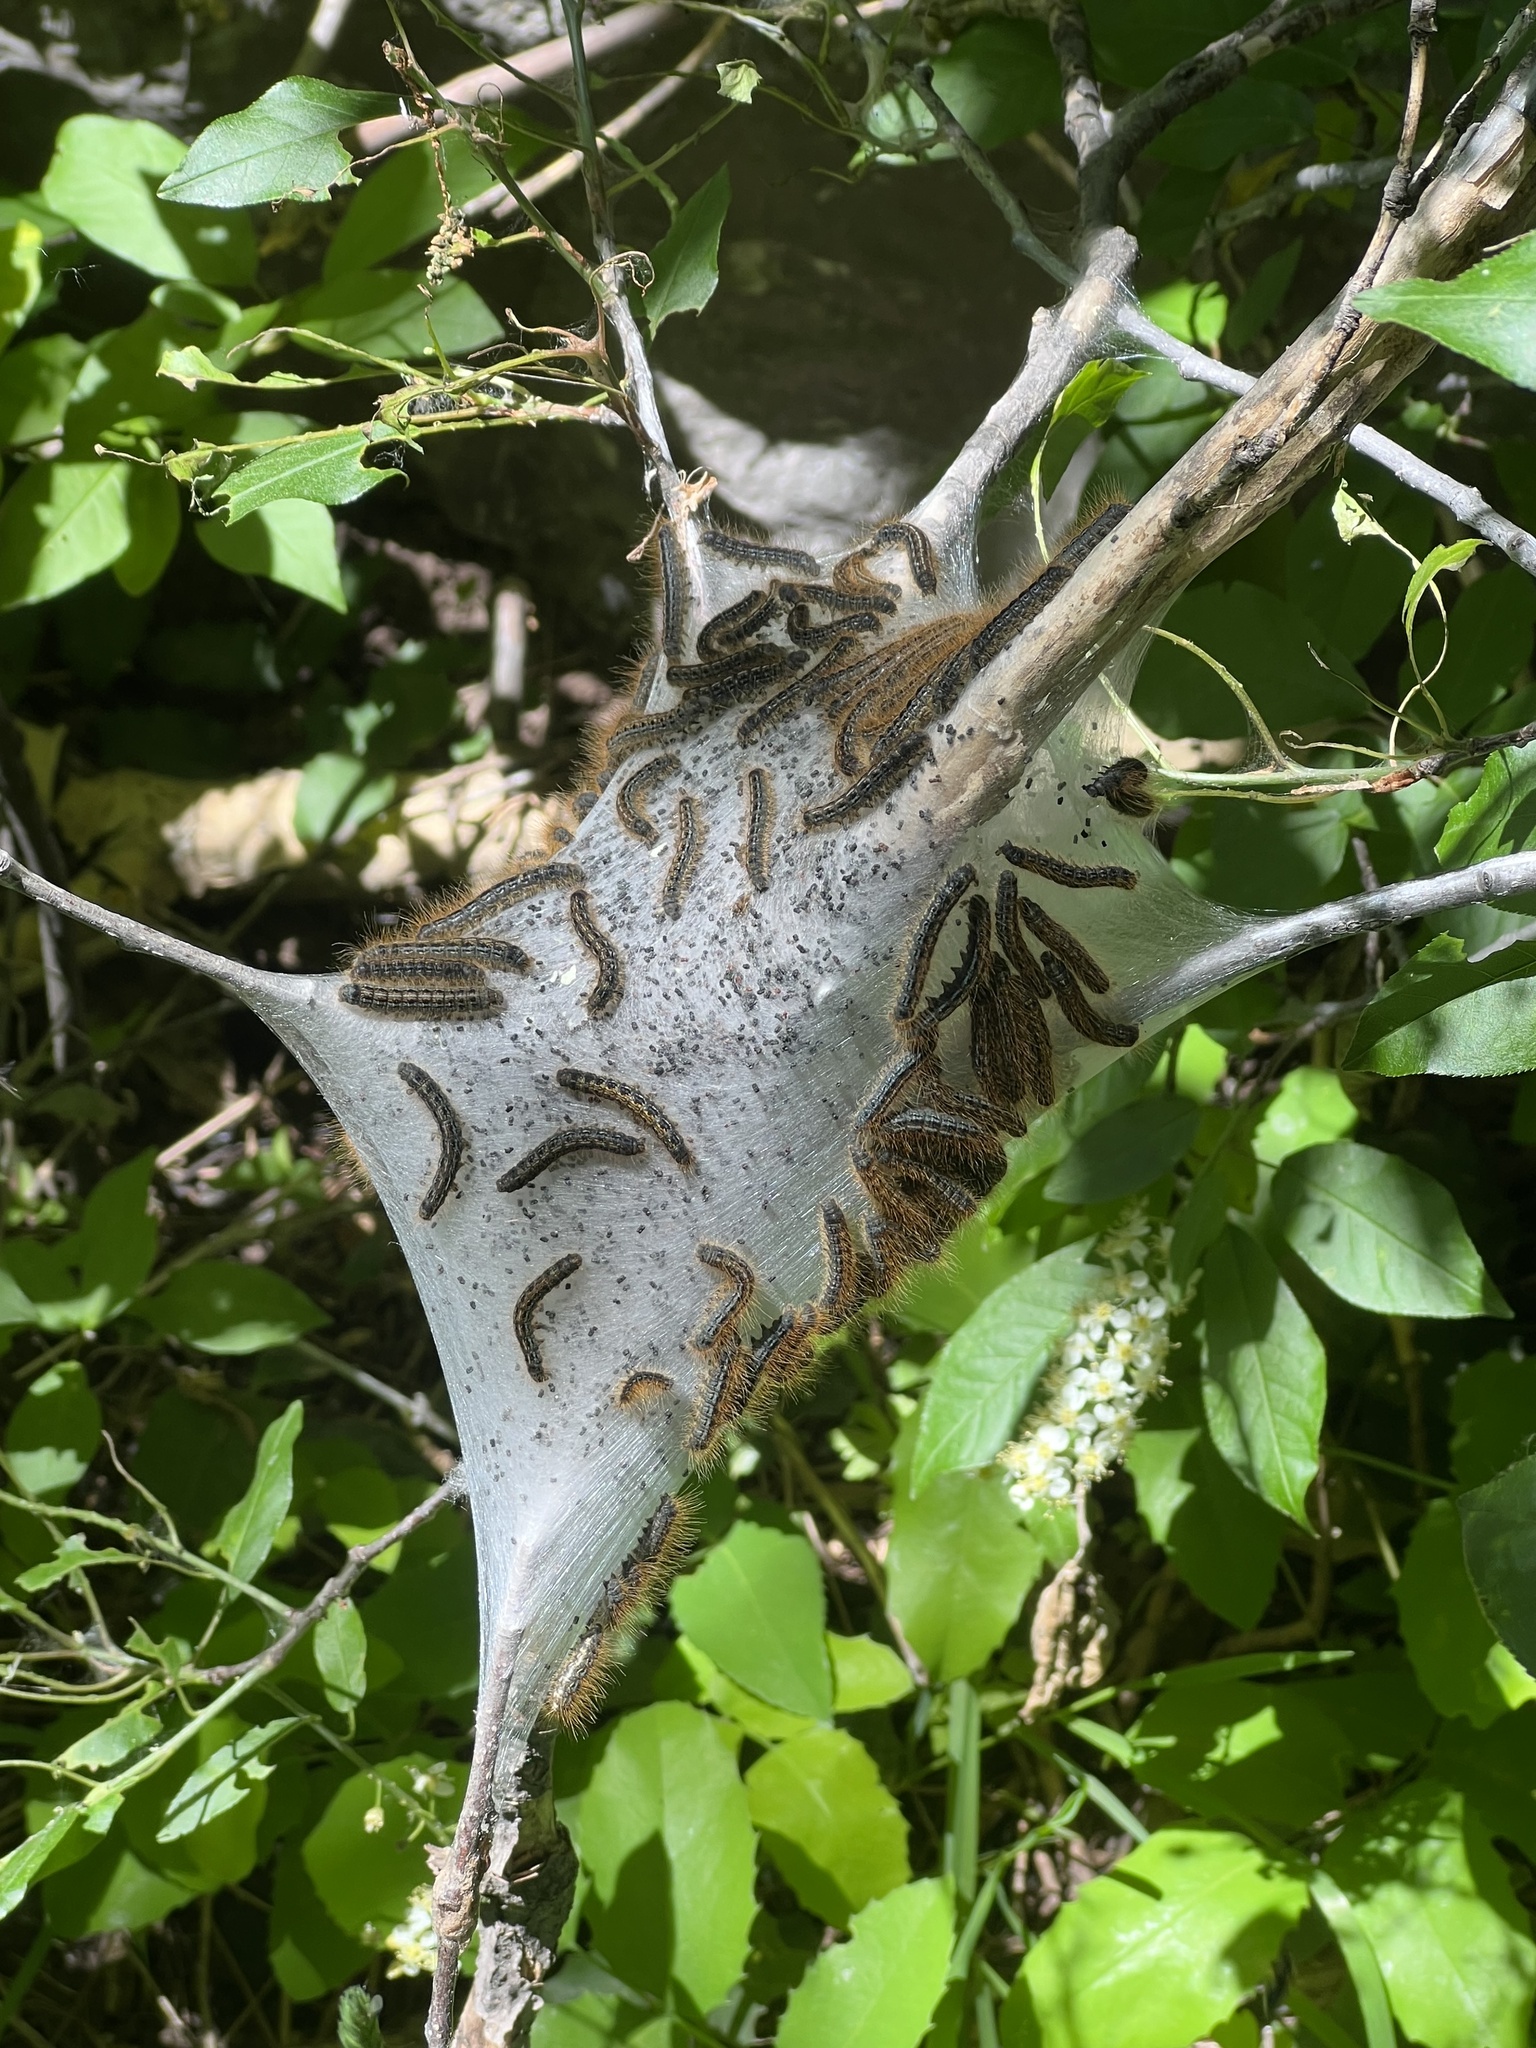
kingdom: Animalia
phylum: Arthropoda
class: Insecta
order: Lepidoptera
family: Lasiocampidae
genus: Malacosoma
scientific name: Malacosoma californica
